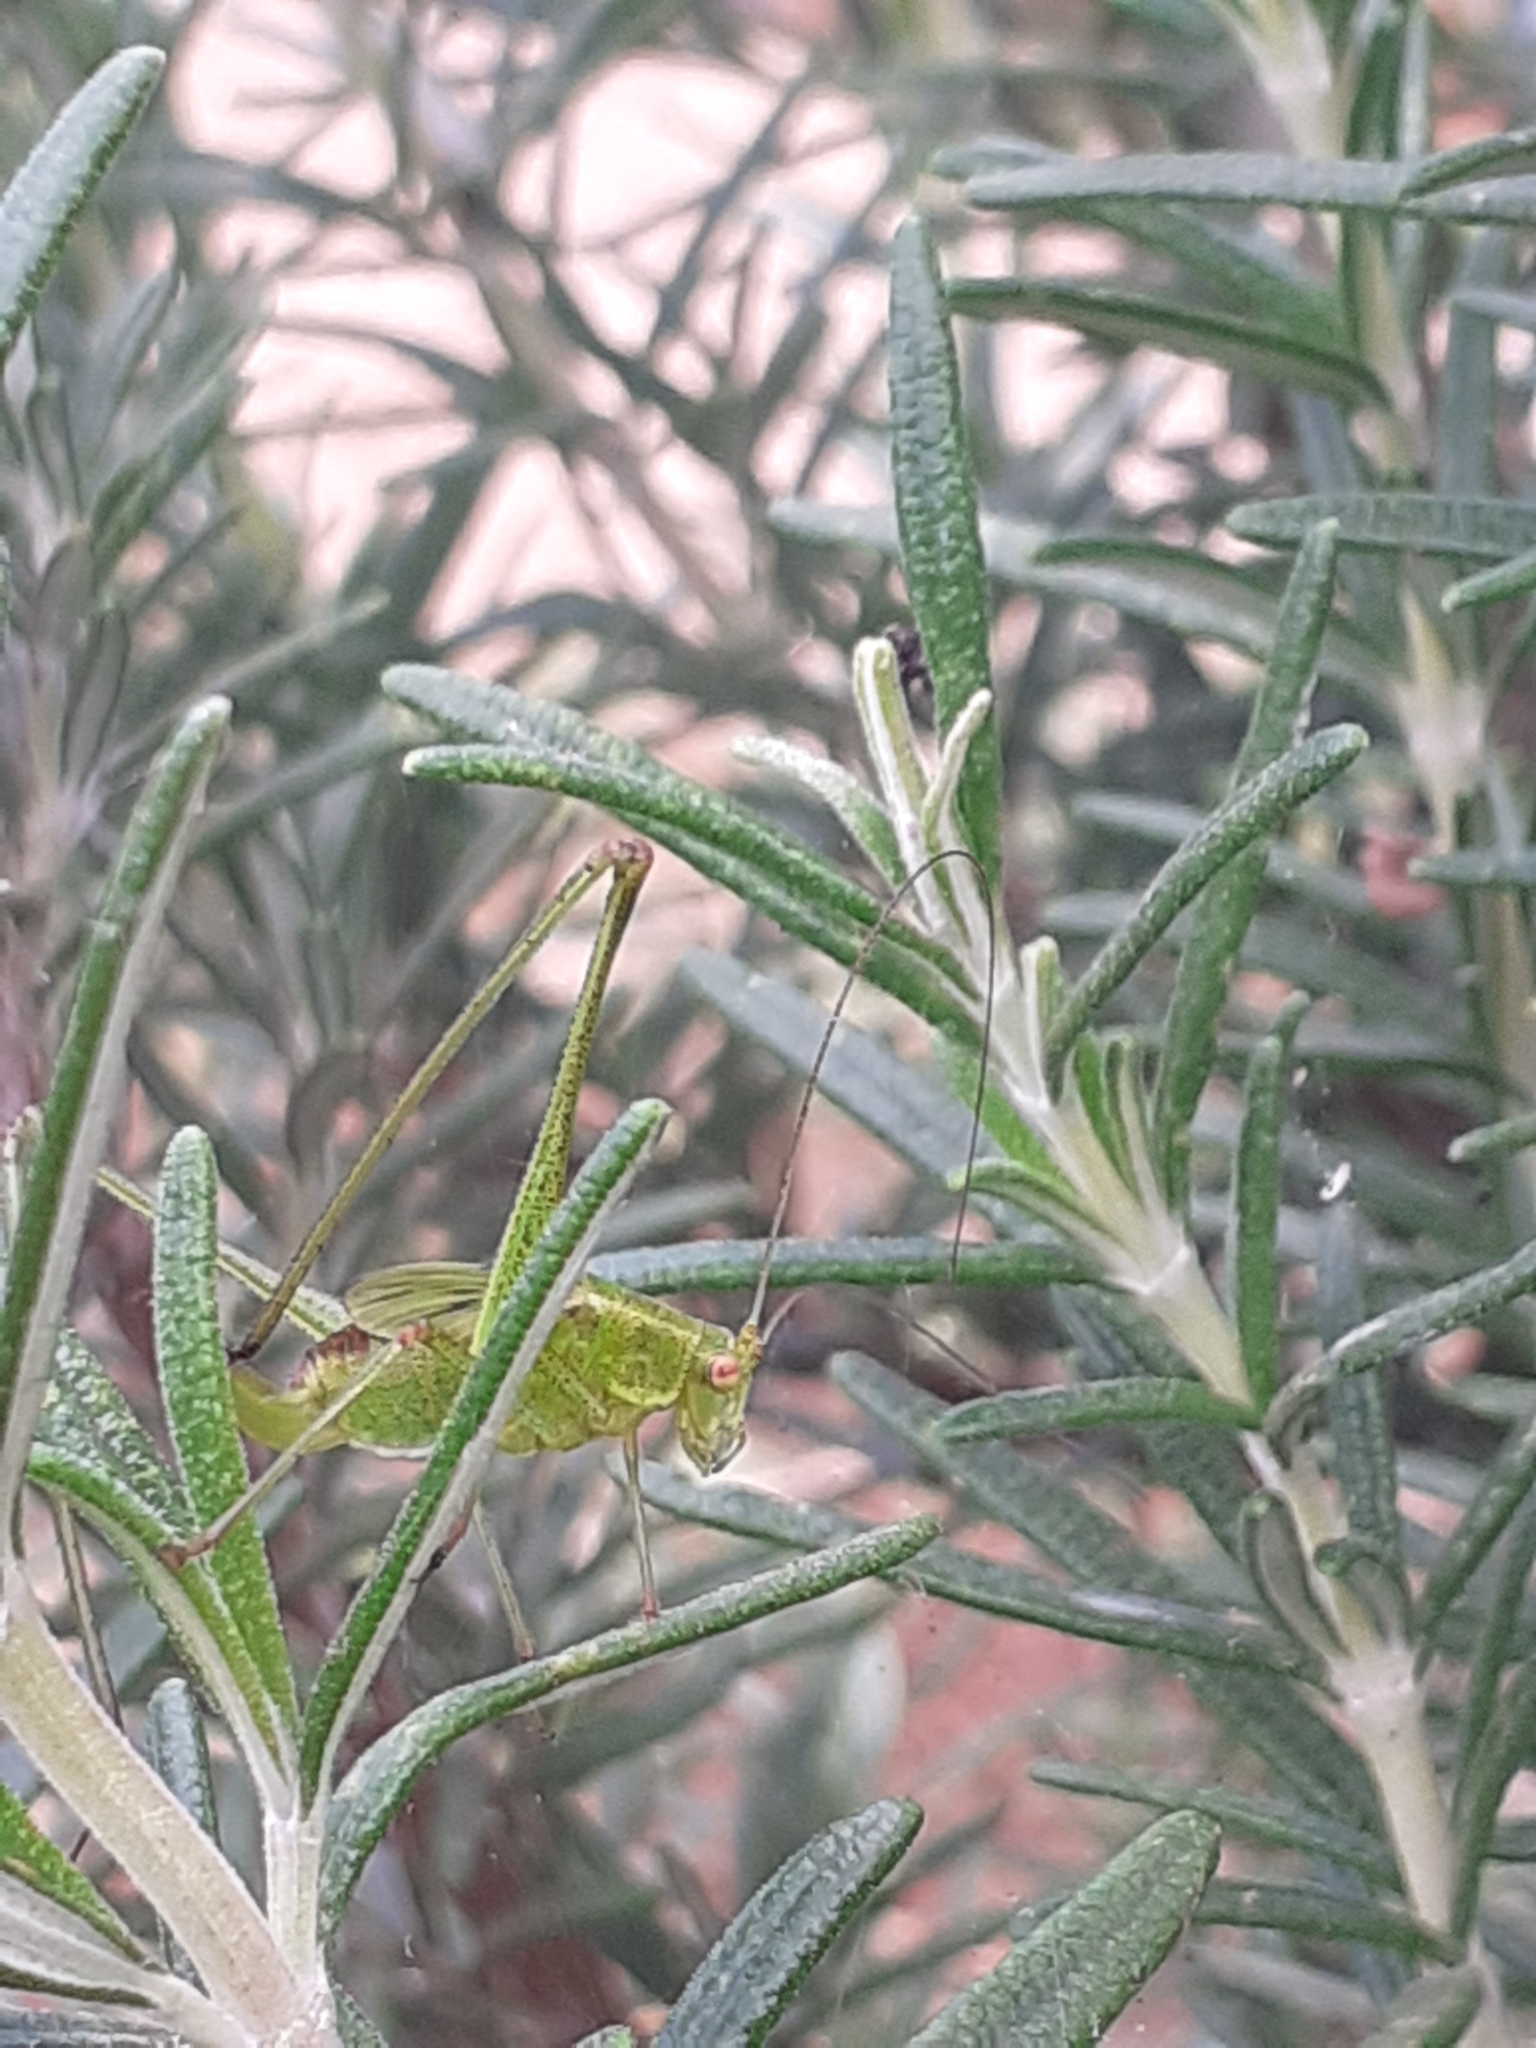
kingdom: Animalia
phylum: Arthropoda
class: Insecta
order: Orthoptera
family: Tettigoniidae
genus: Phaneroptera
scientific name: Phaneroptera sparsa
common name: Sickle-bearing leaf katydid
